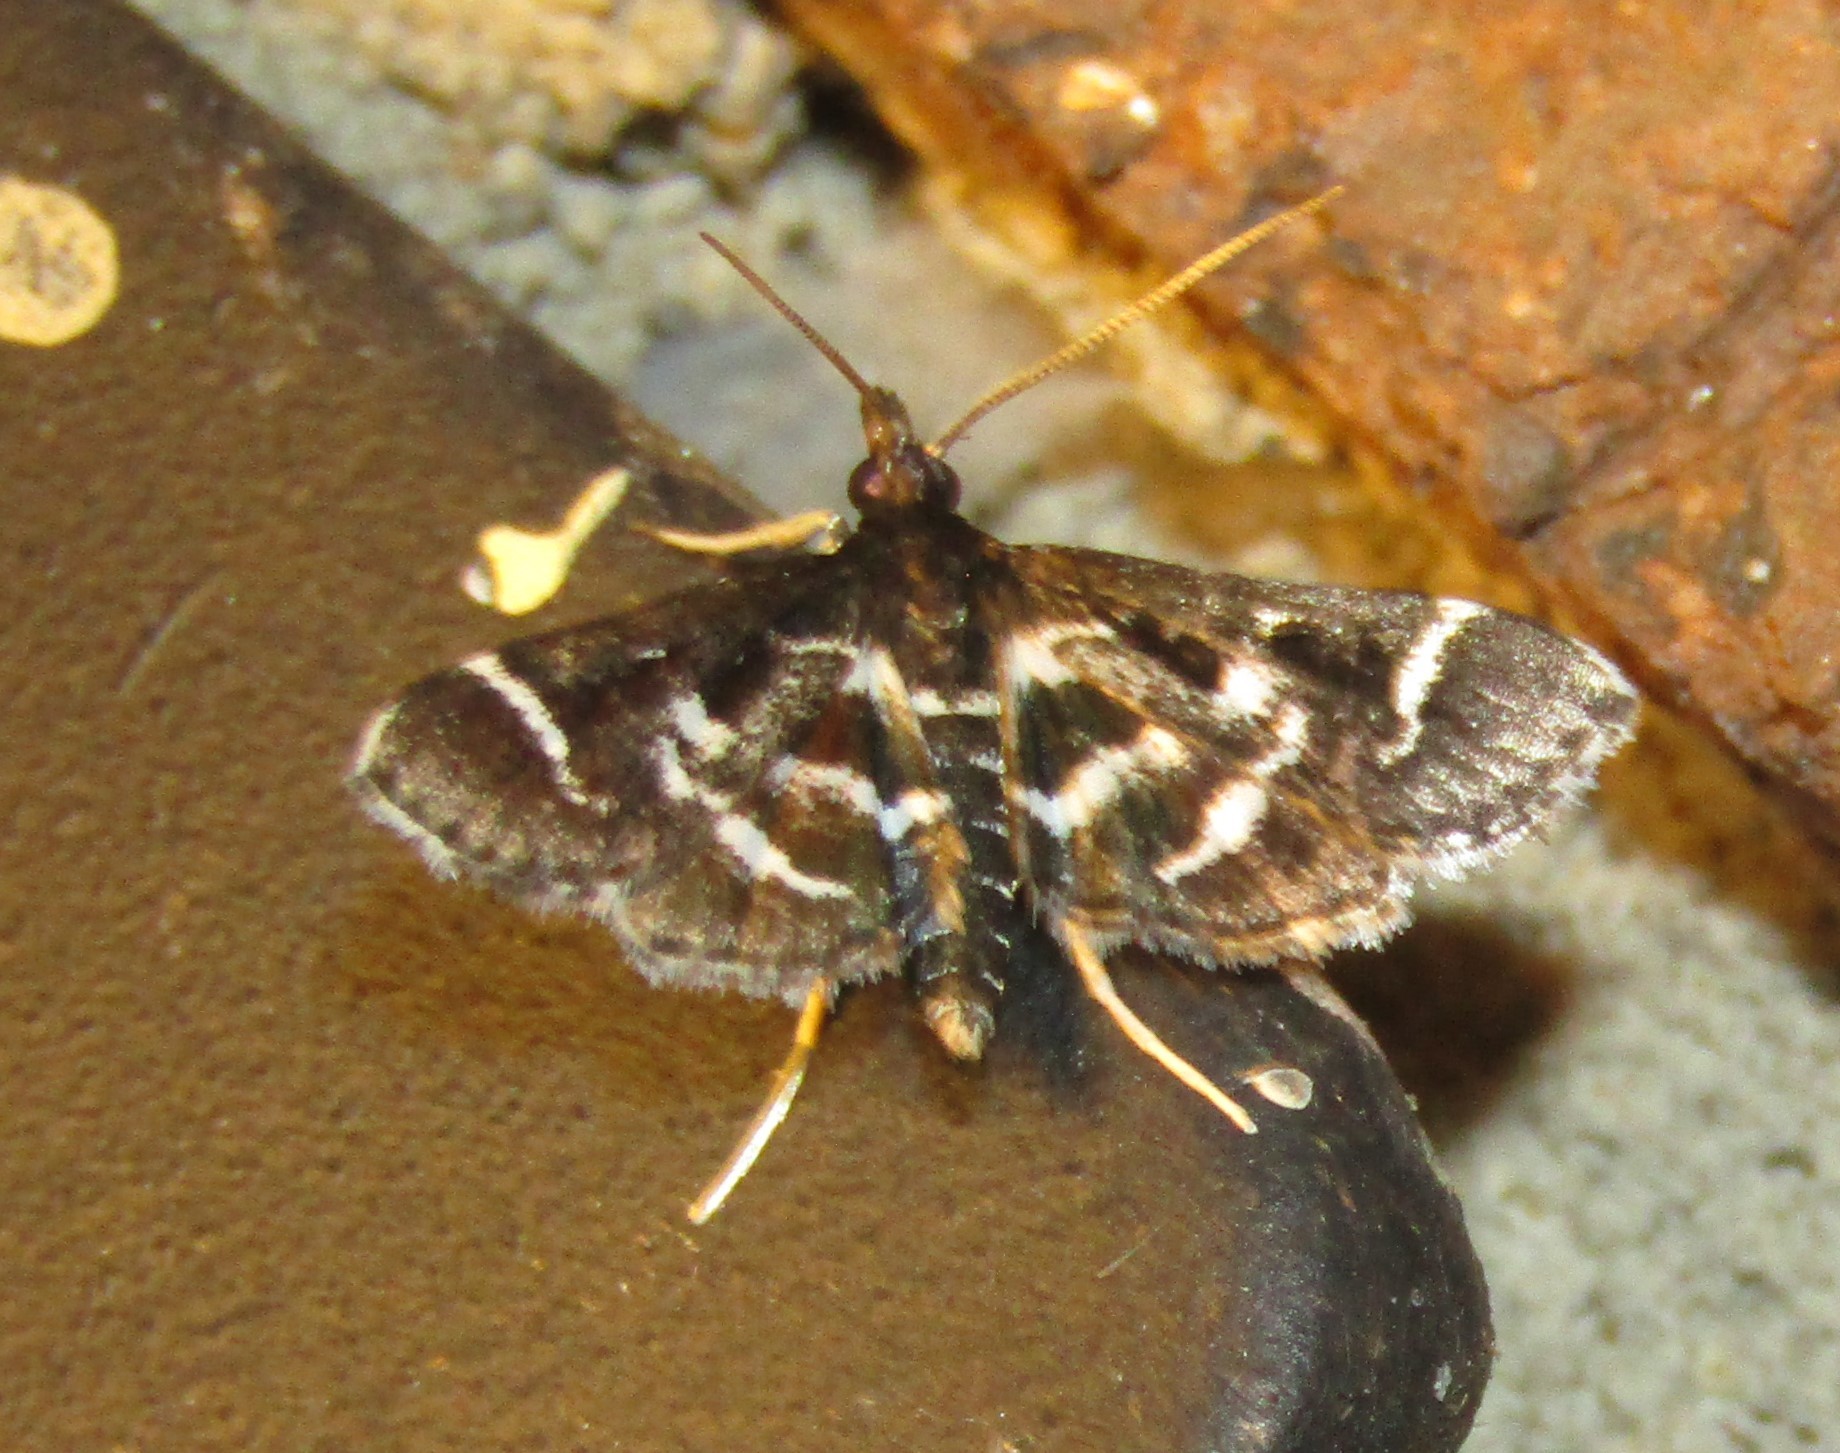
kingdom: Animalia
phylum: Arthropoda
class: Insecta
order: Lepidoptera
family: Crambidae
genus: Diasemiodes
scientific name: Diasemiodes janassialis
